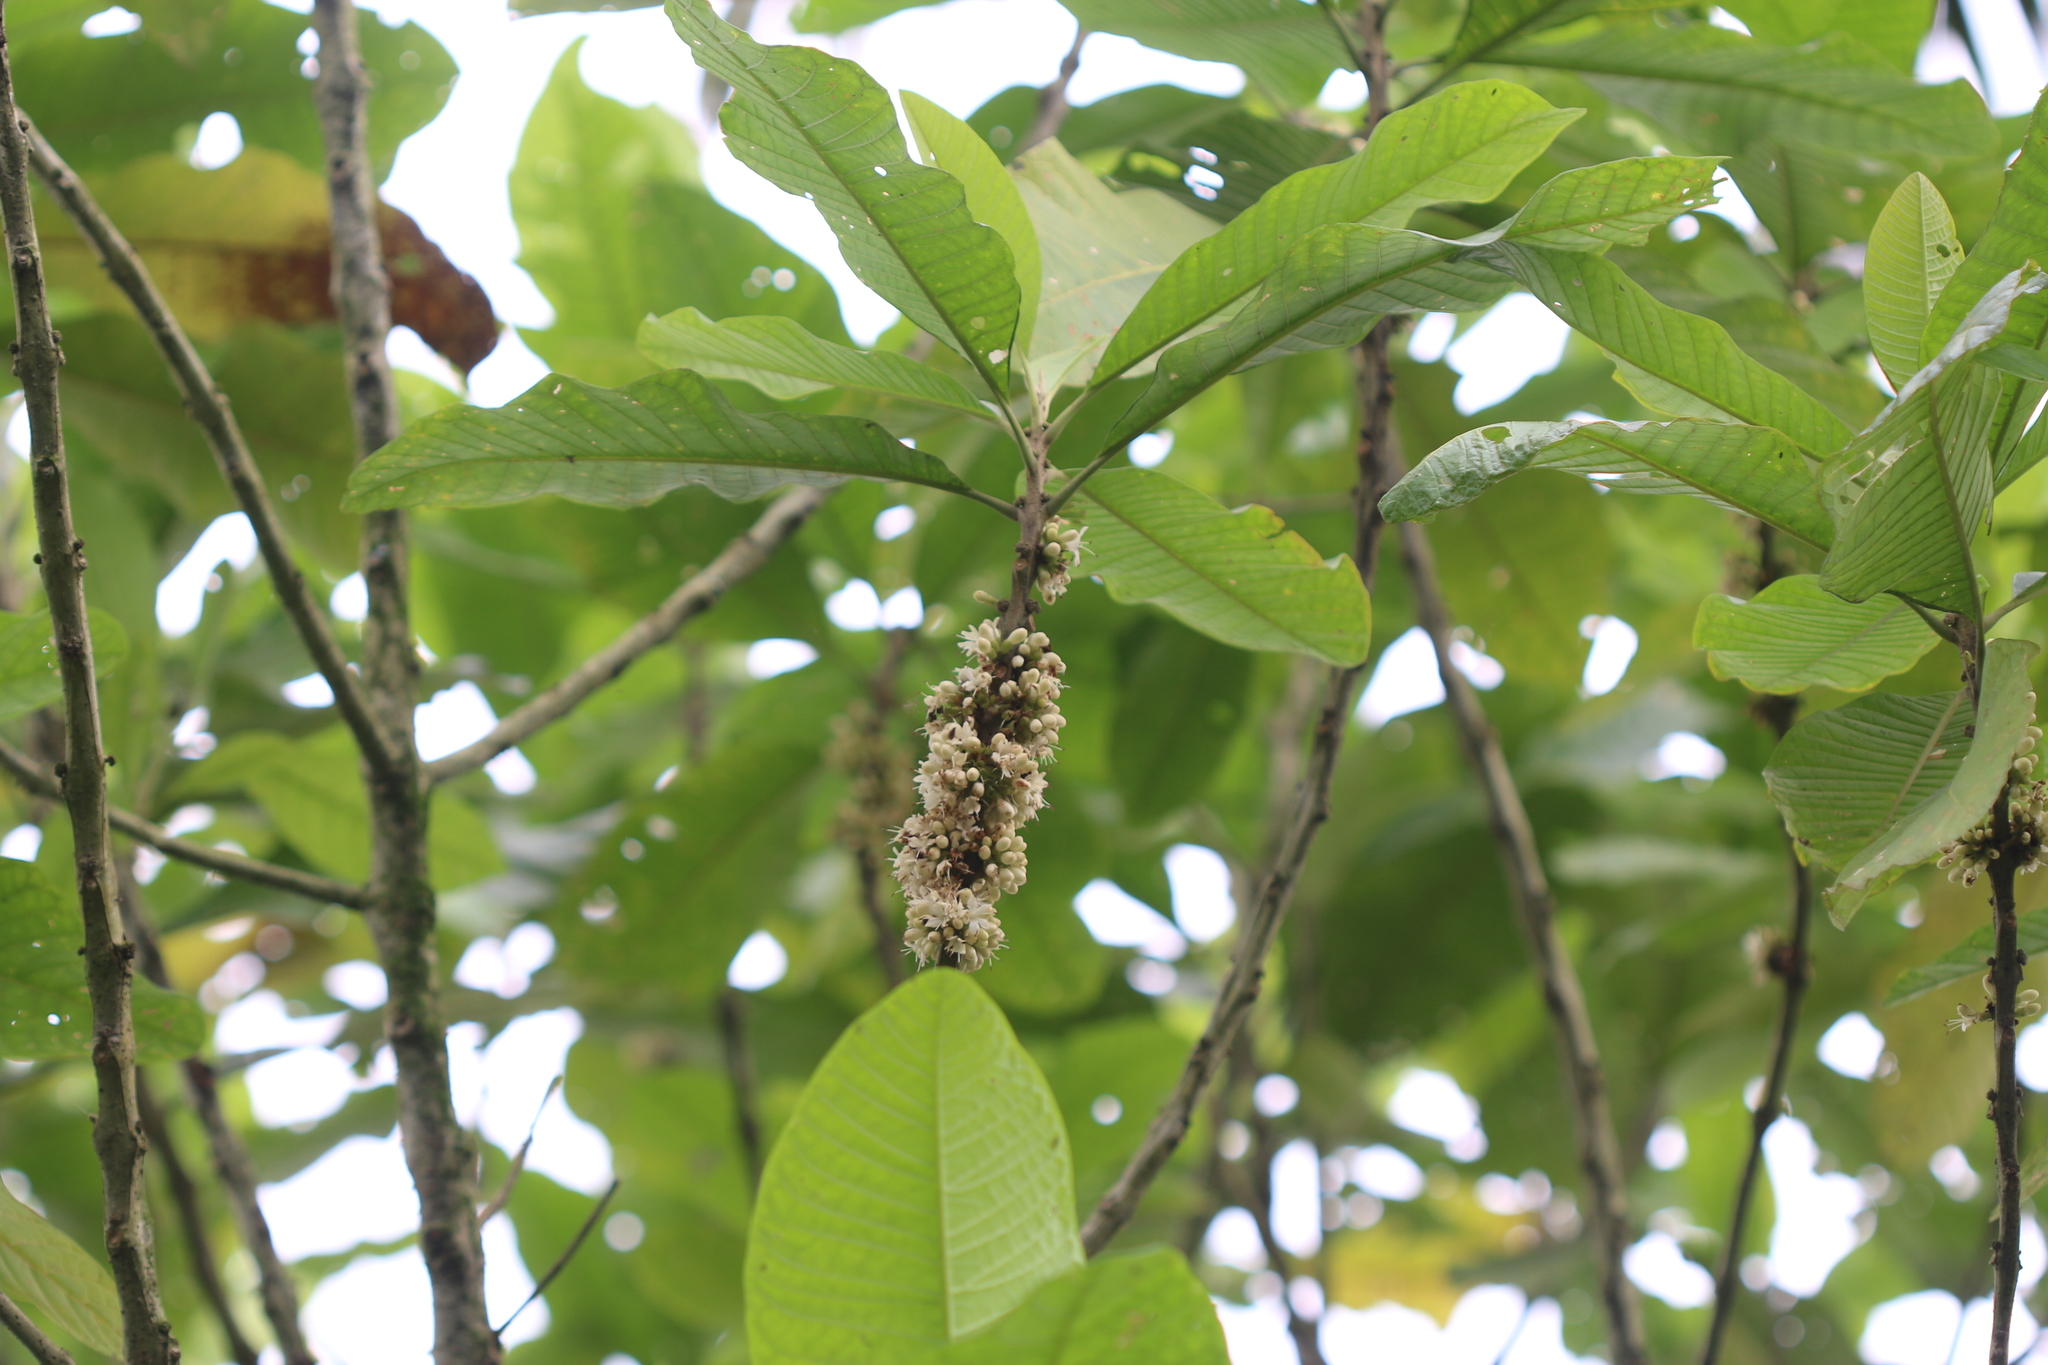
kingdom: Plantae
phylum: Tracheophyta
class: Magnoliopsida
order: Lamiales
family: Lamiaceae
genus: Aegiphila
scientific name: Aegiphila alba
